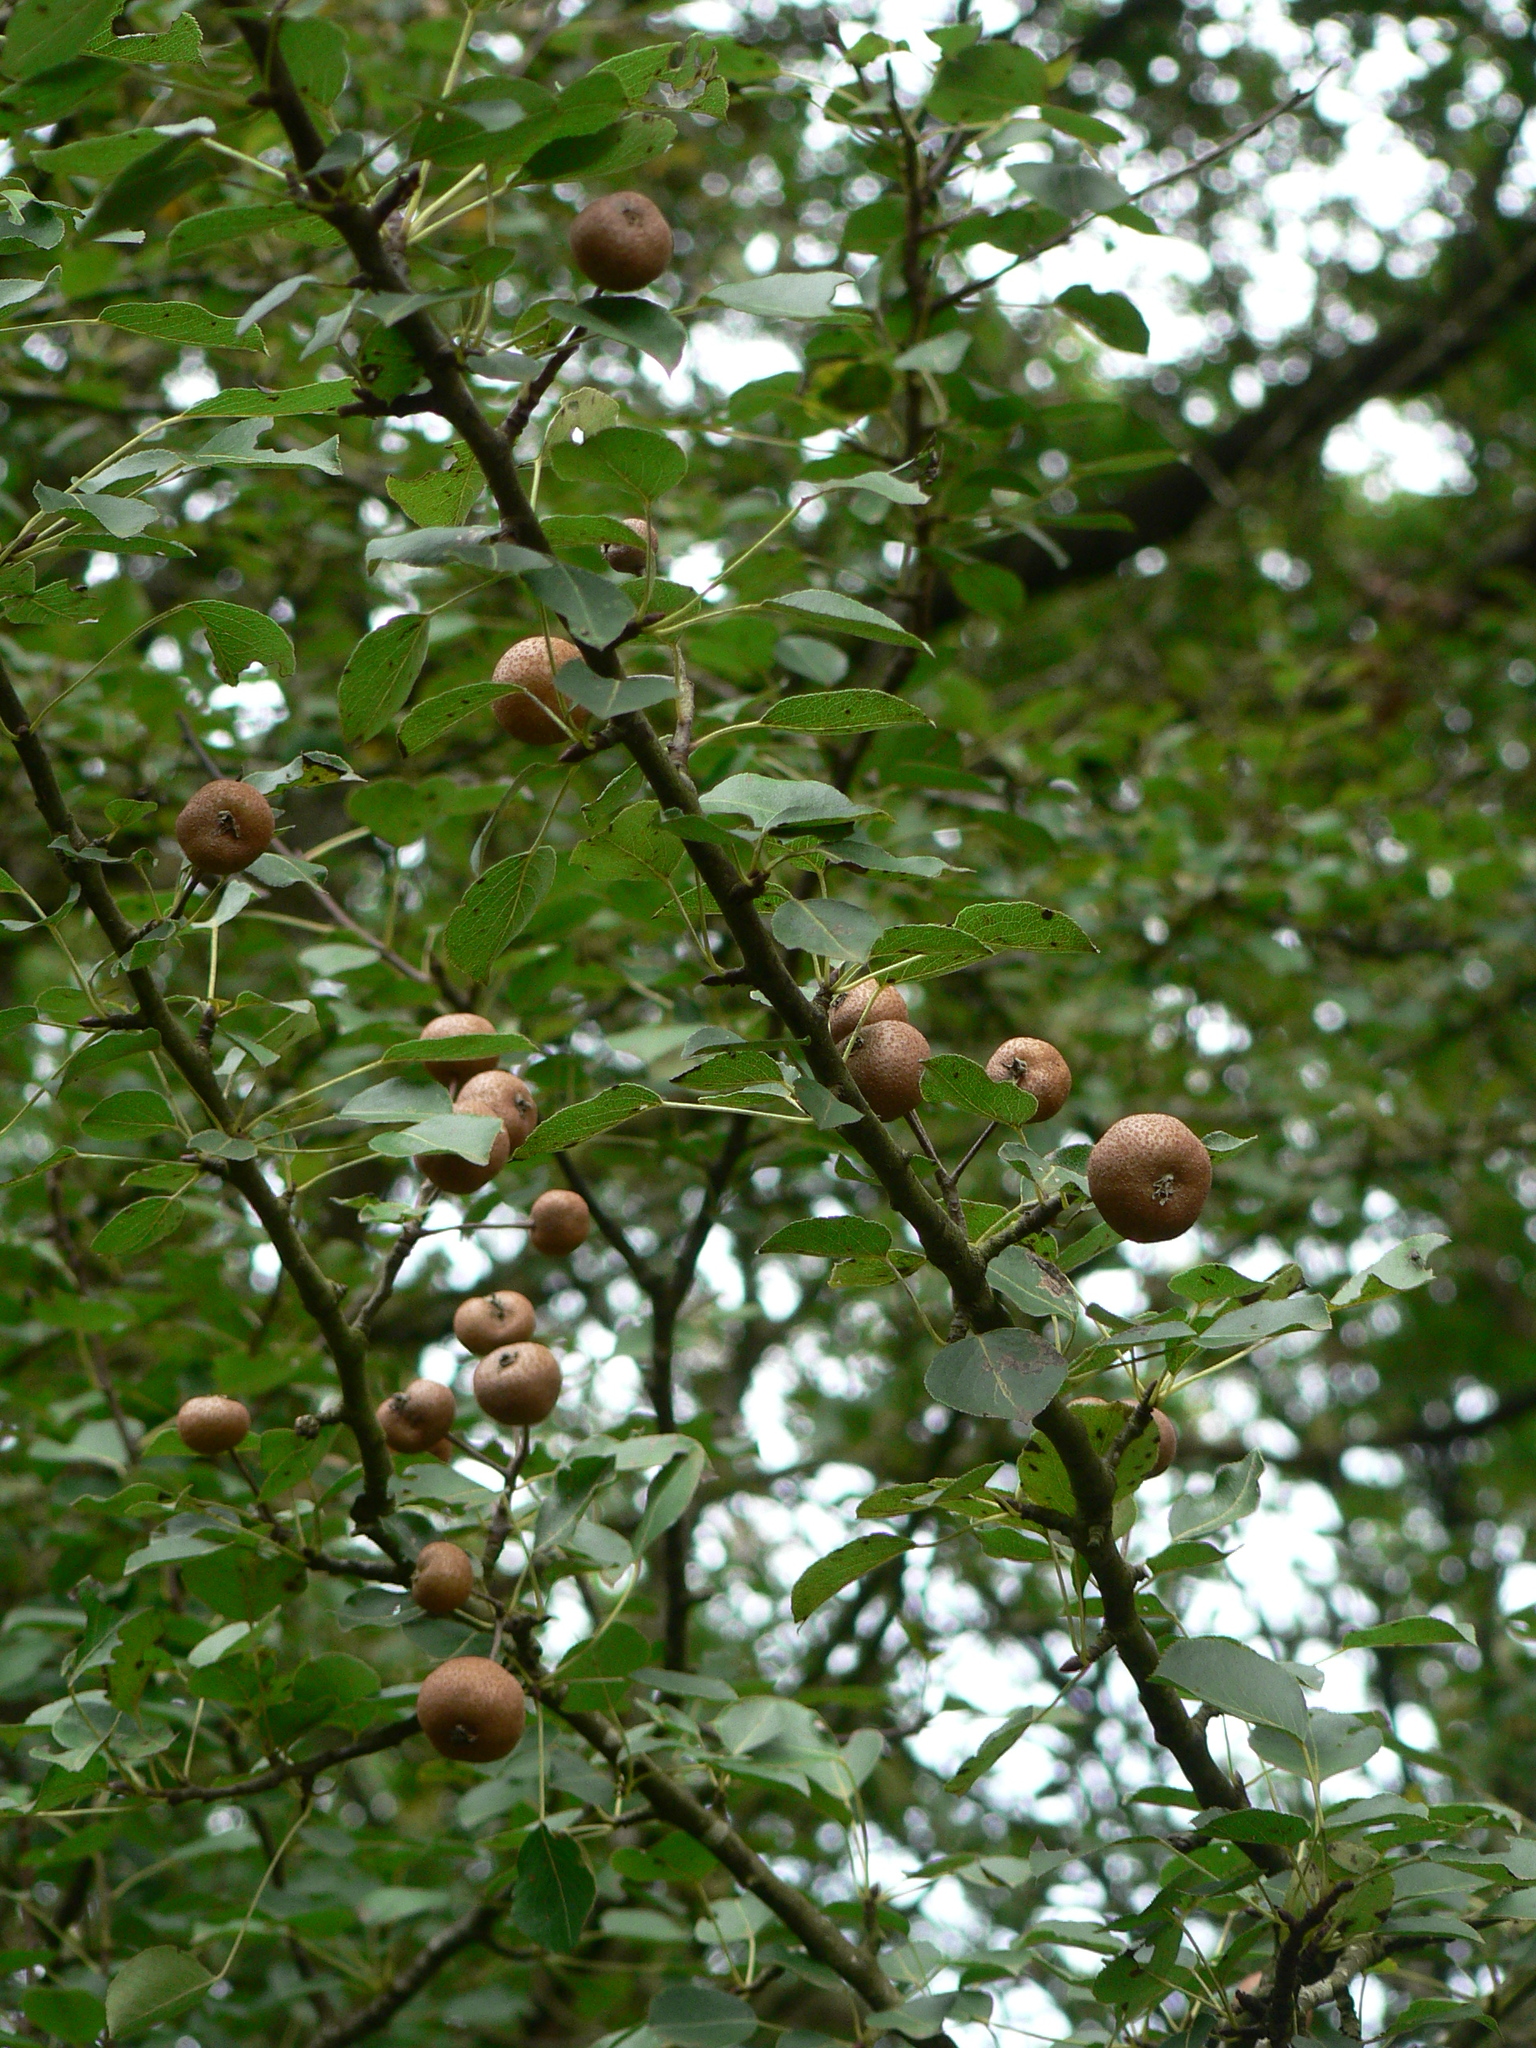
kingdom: Plantae
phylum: Tracheophyta
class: Magnoliopsida
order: Rosales
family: Rosaceae
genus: Pyrus
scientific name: Pyrus cordata
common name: Plymouth pear
